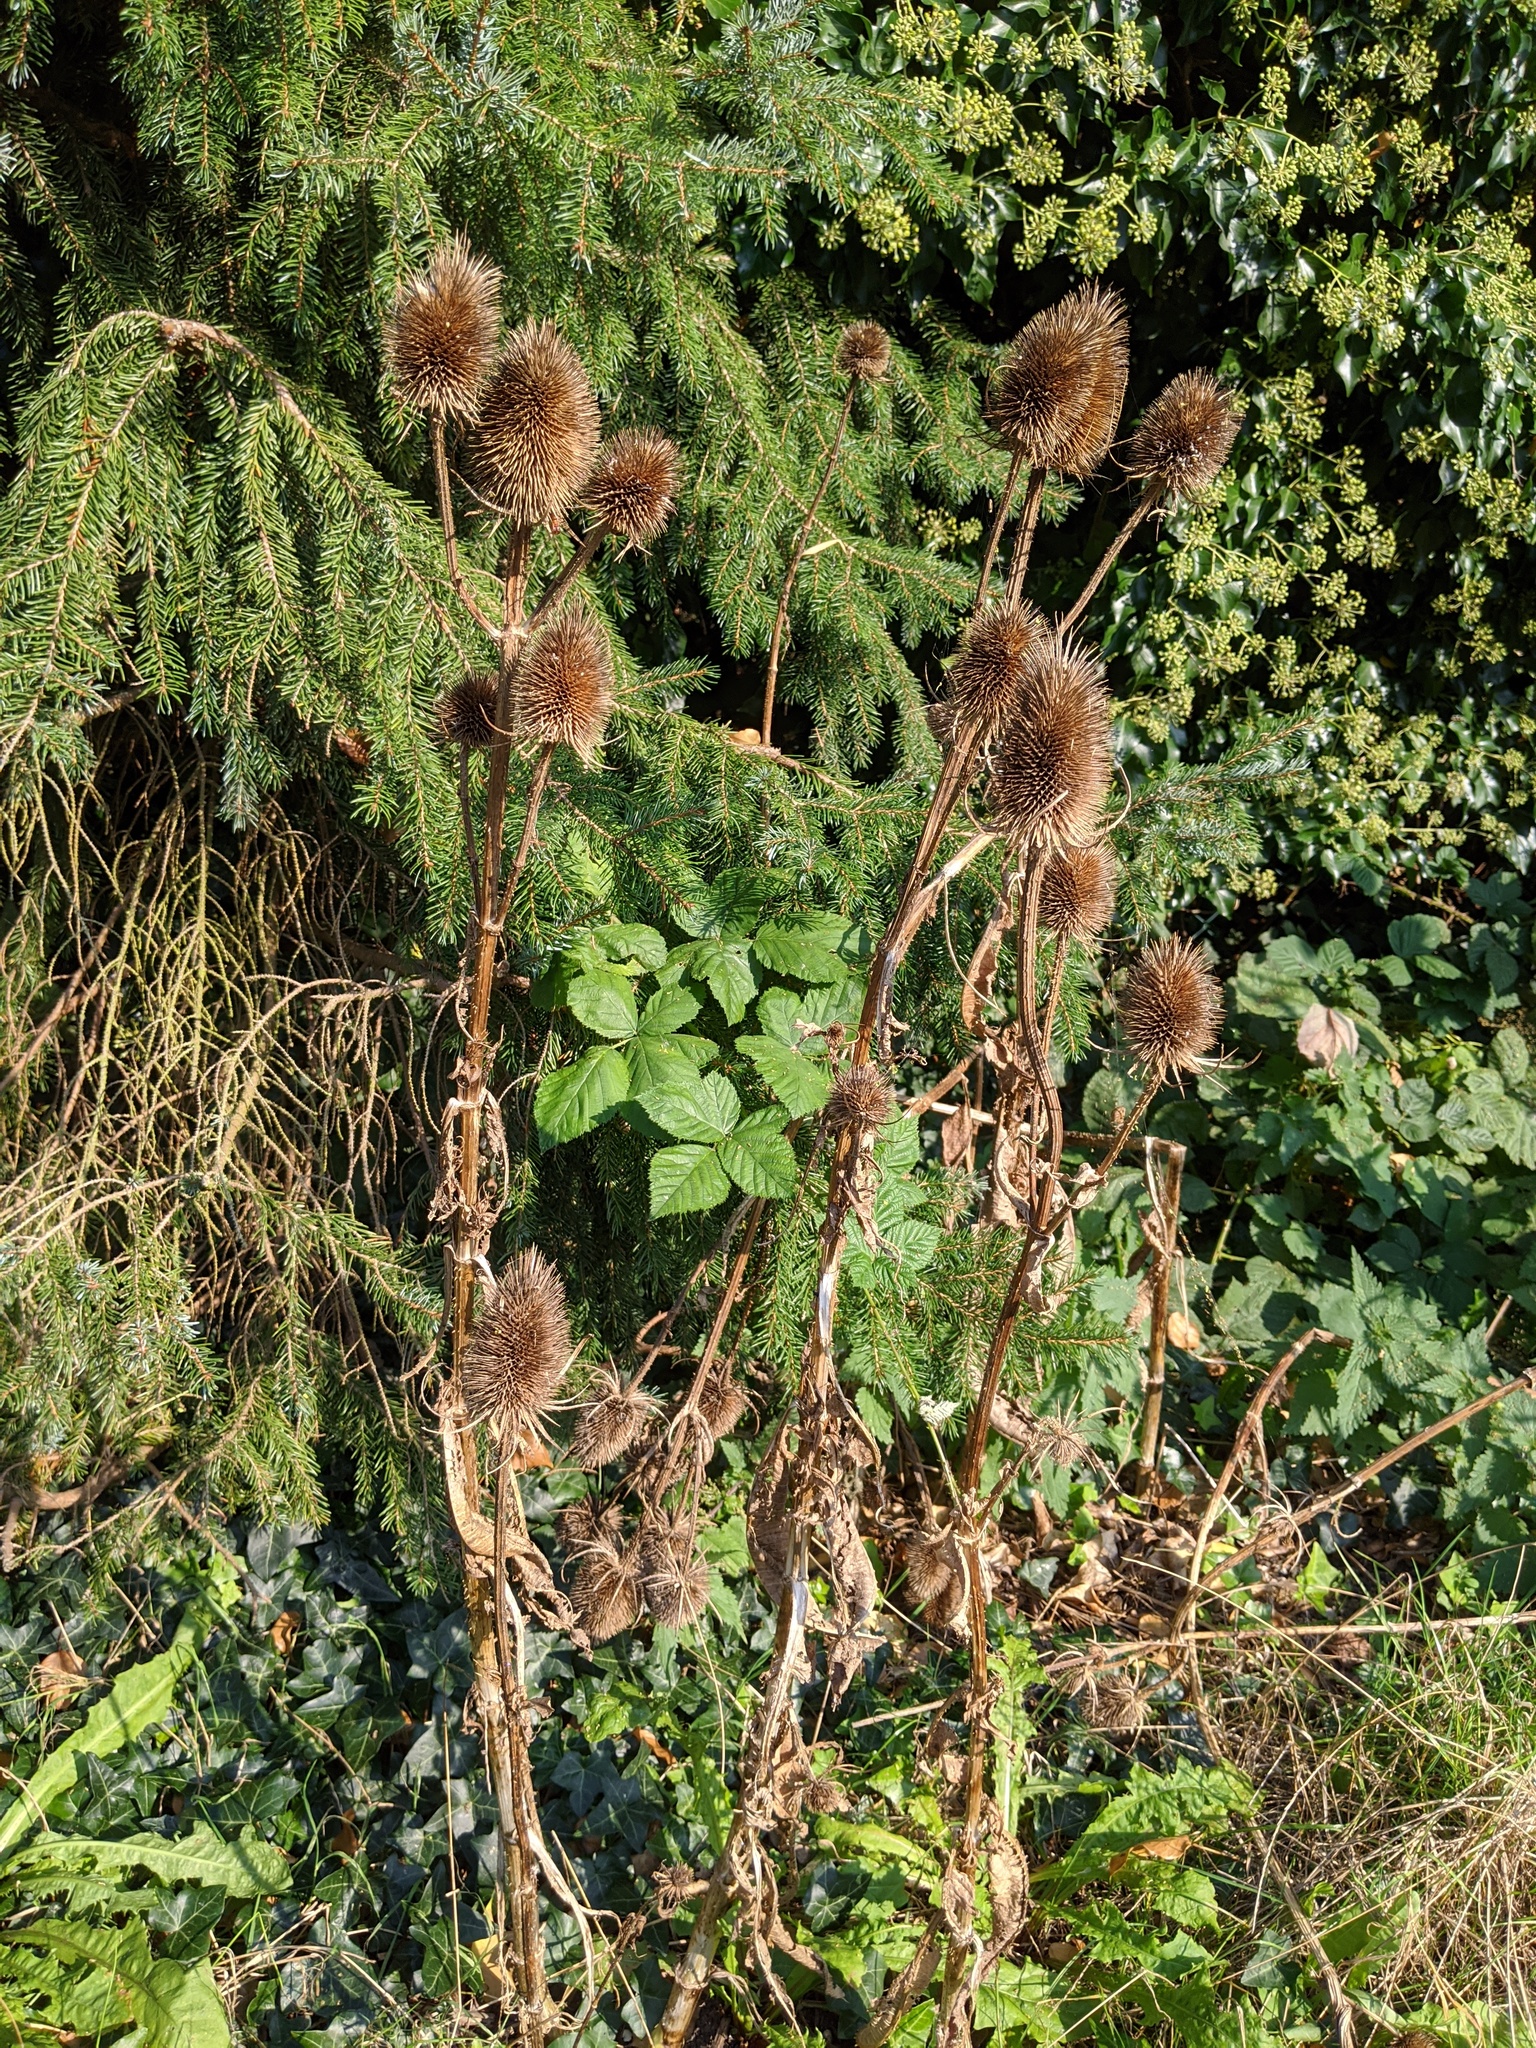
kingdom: Plantae
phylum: Tracheophyta
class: Magnoliopsida
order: Dipsacales
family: Caprifoliaceae
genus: Dipsacus
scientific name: Dipsacus fullonum
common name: Teasel
